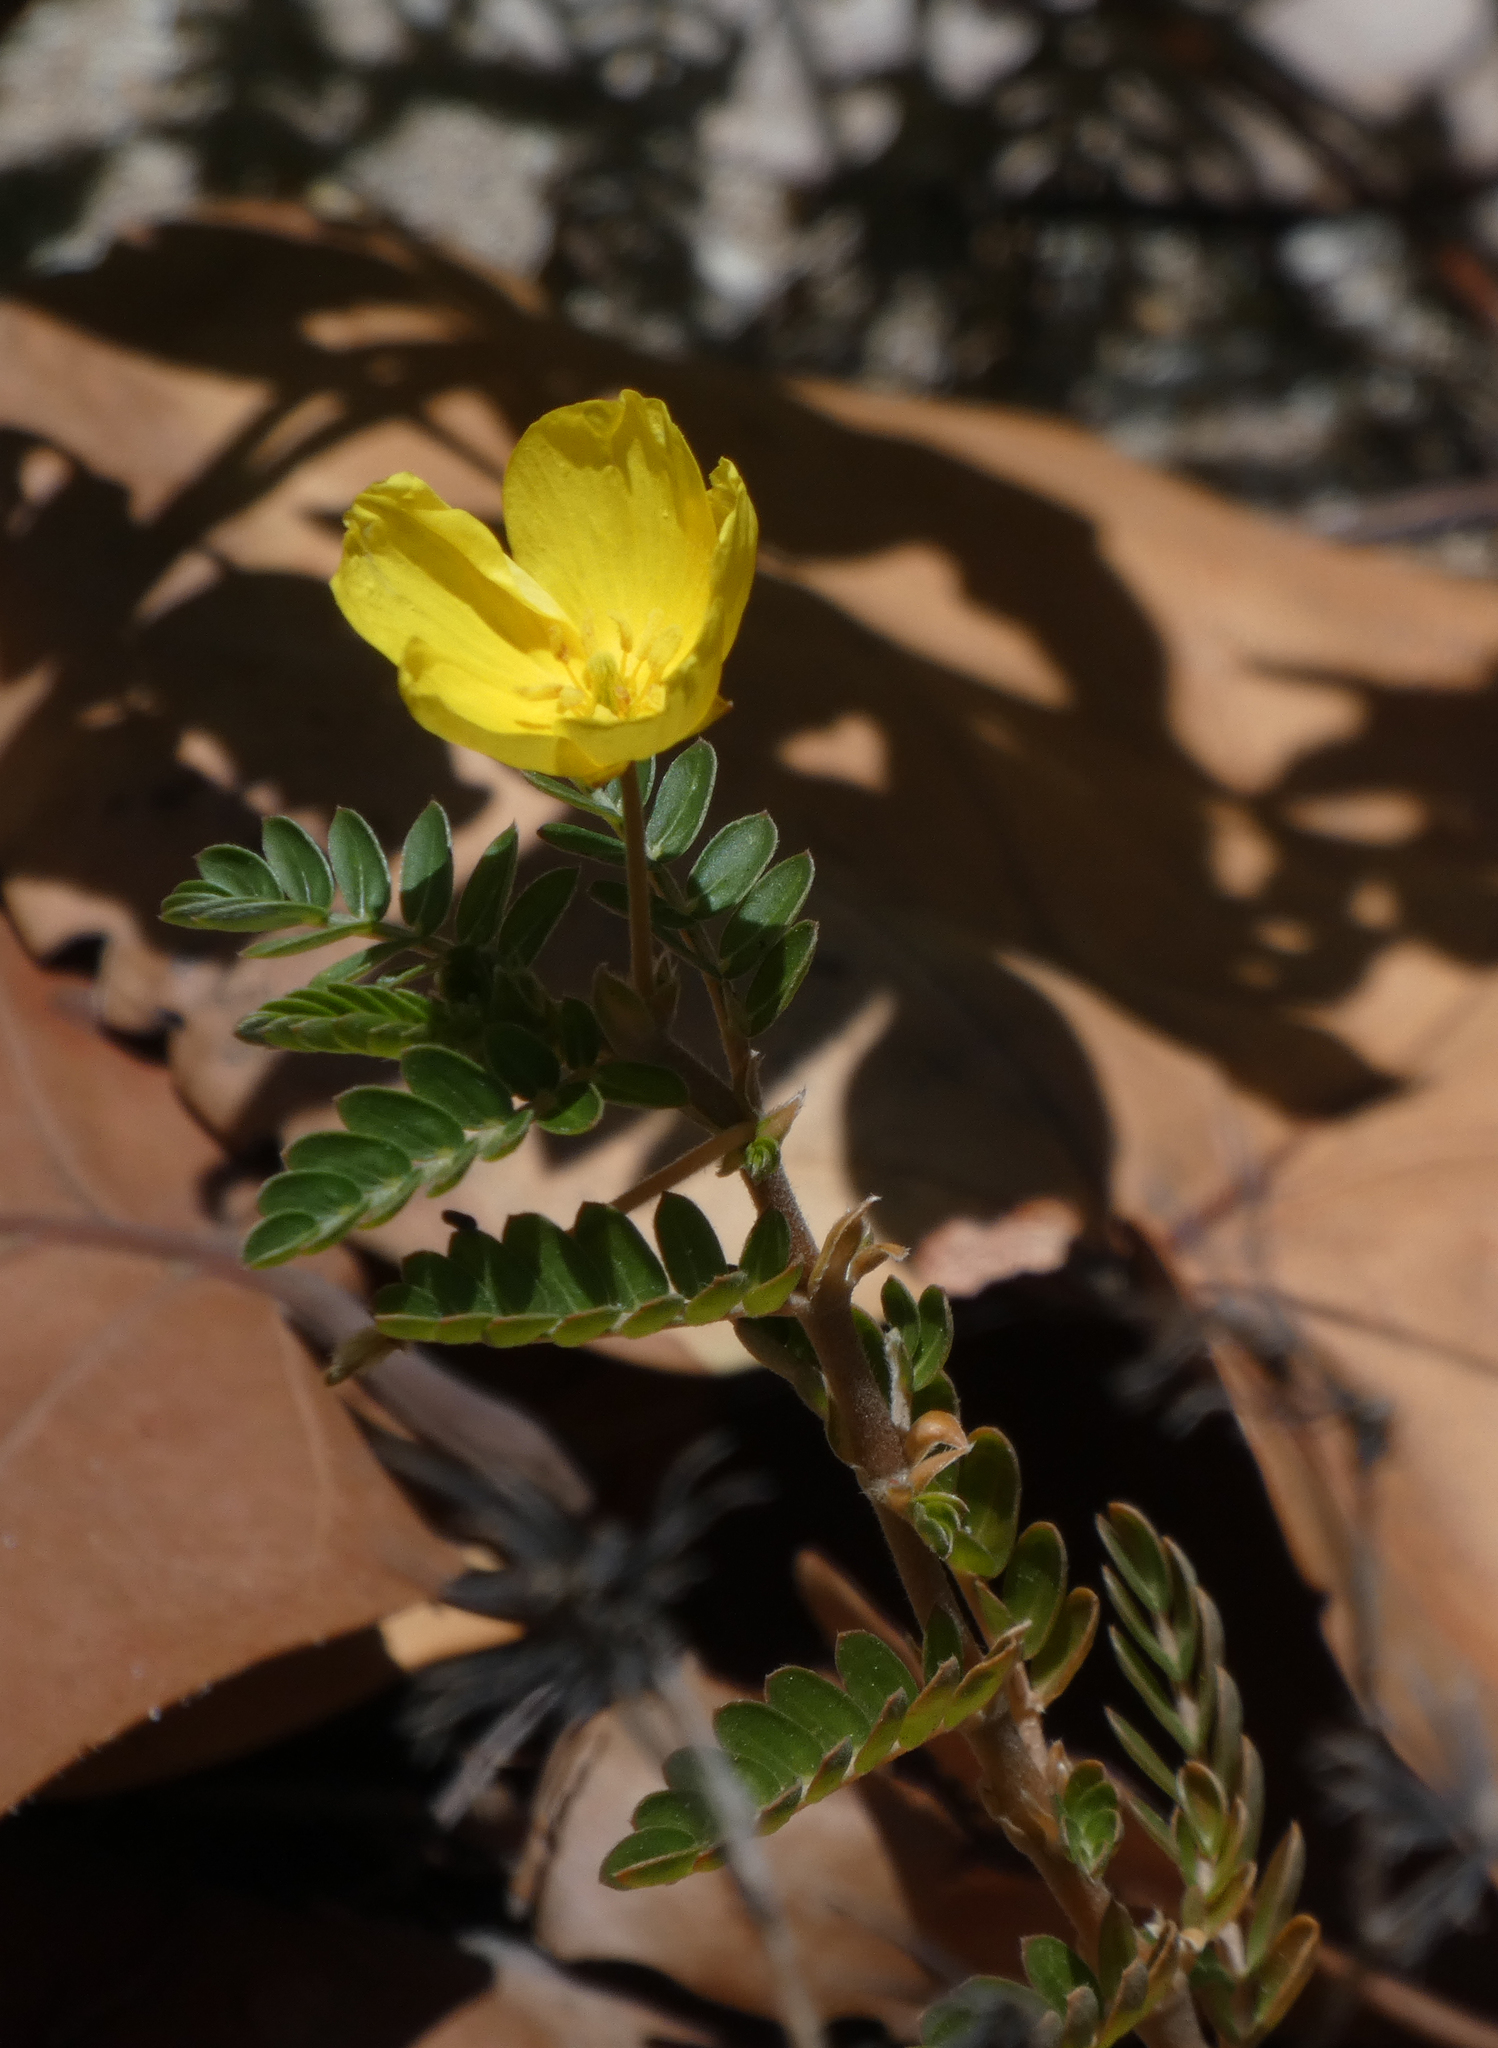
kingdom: Plantae
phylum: Tracheophyta
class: Magnoliopsida
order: Zygophyllales
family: Zygophyllaceae
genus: Tribulus
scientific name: Tribulus cistoides
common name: Jamaican feverplant
